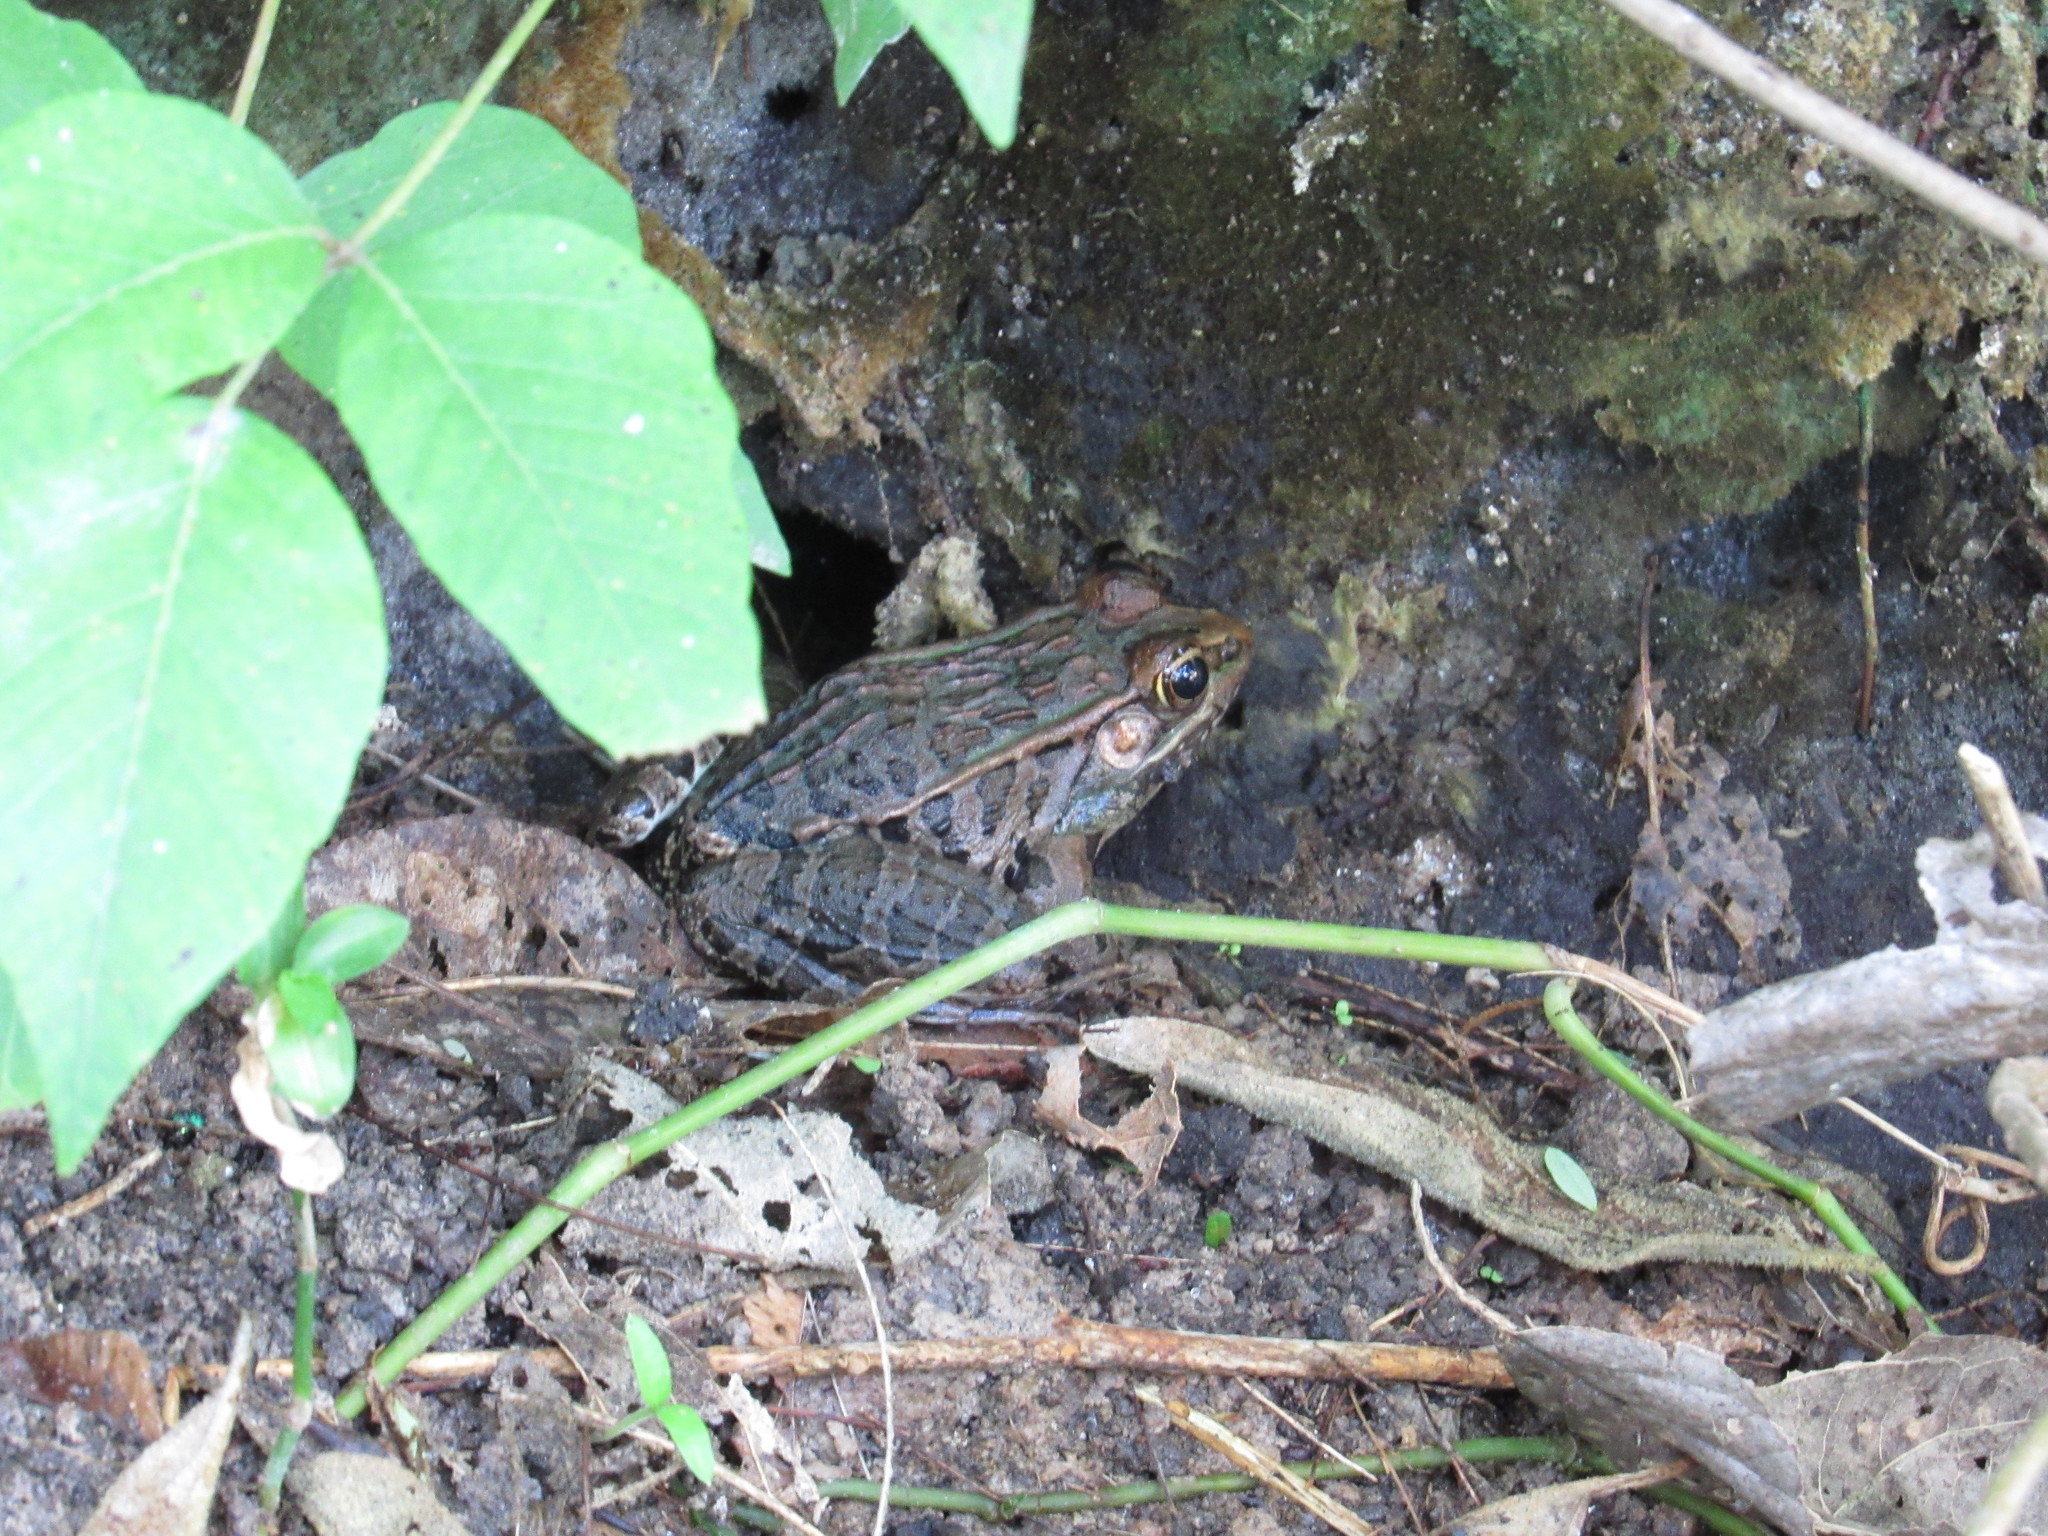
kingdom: Animalia
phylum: Chordata
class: Amphibia
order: Anura
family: Ranidae
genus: Lithobates
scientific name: Lithobates neovolcanicus
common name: Transverse volcanic leopard frog
